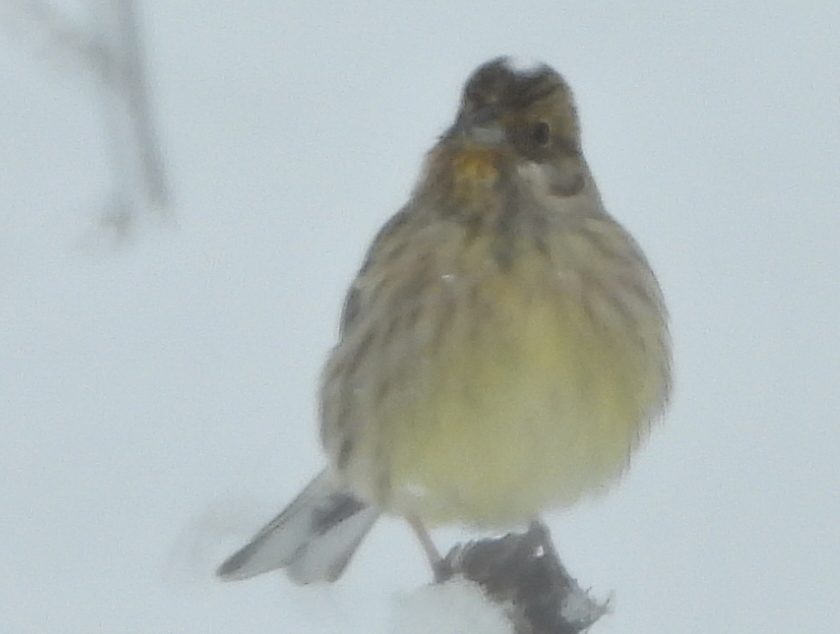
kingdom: Animalia
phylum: Chordata
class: Aves
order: Passeriformes
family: Emberizidae
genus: Emberiza
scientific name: Emberiza citrinella
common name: Yellowhammer
